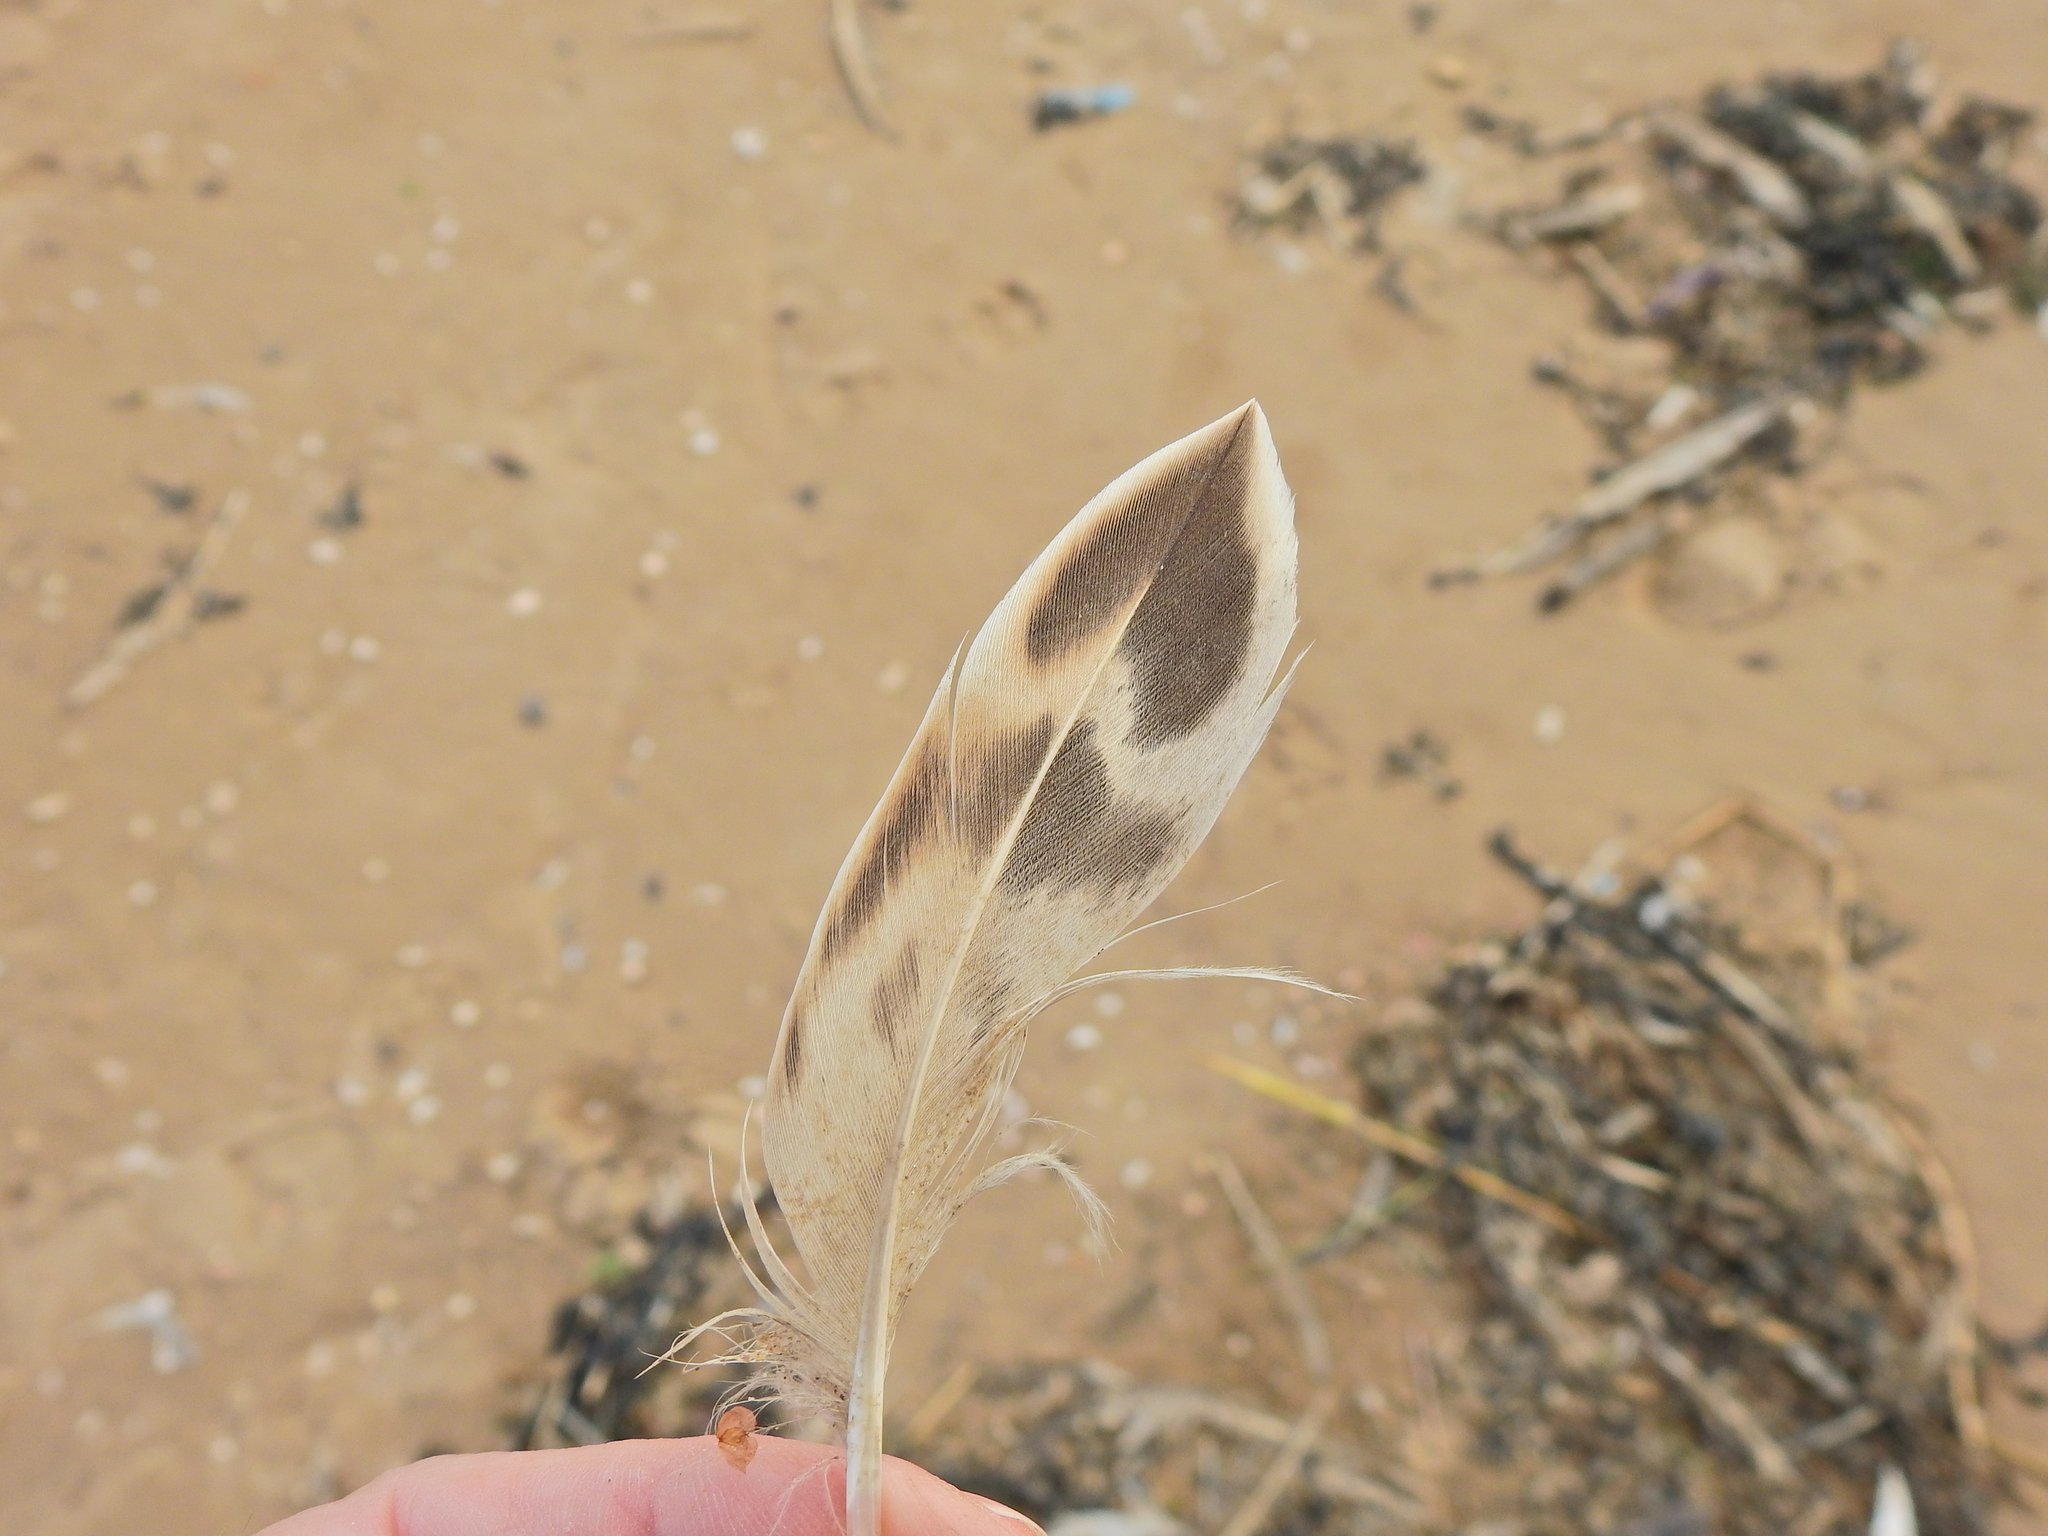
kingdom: Animalia
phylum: Chordata
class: Aves
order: Anseriformes
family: Anatidae
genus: Anas
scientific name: Anas platyrhynchos
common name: Mallard
